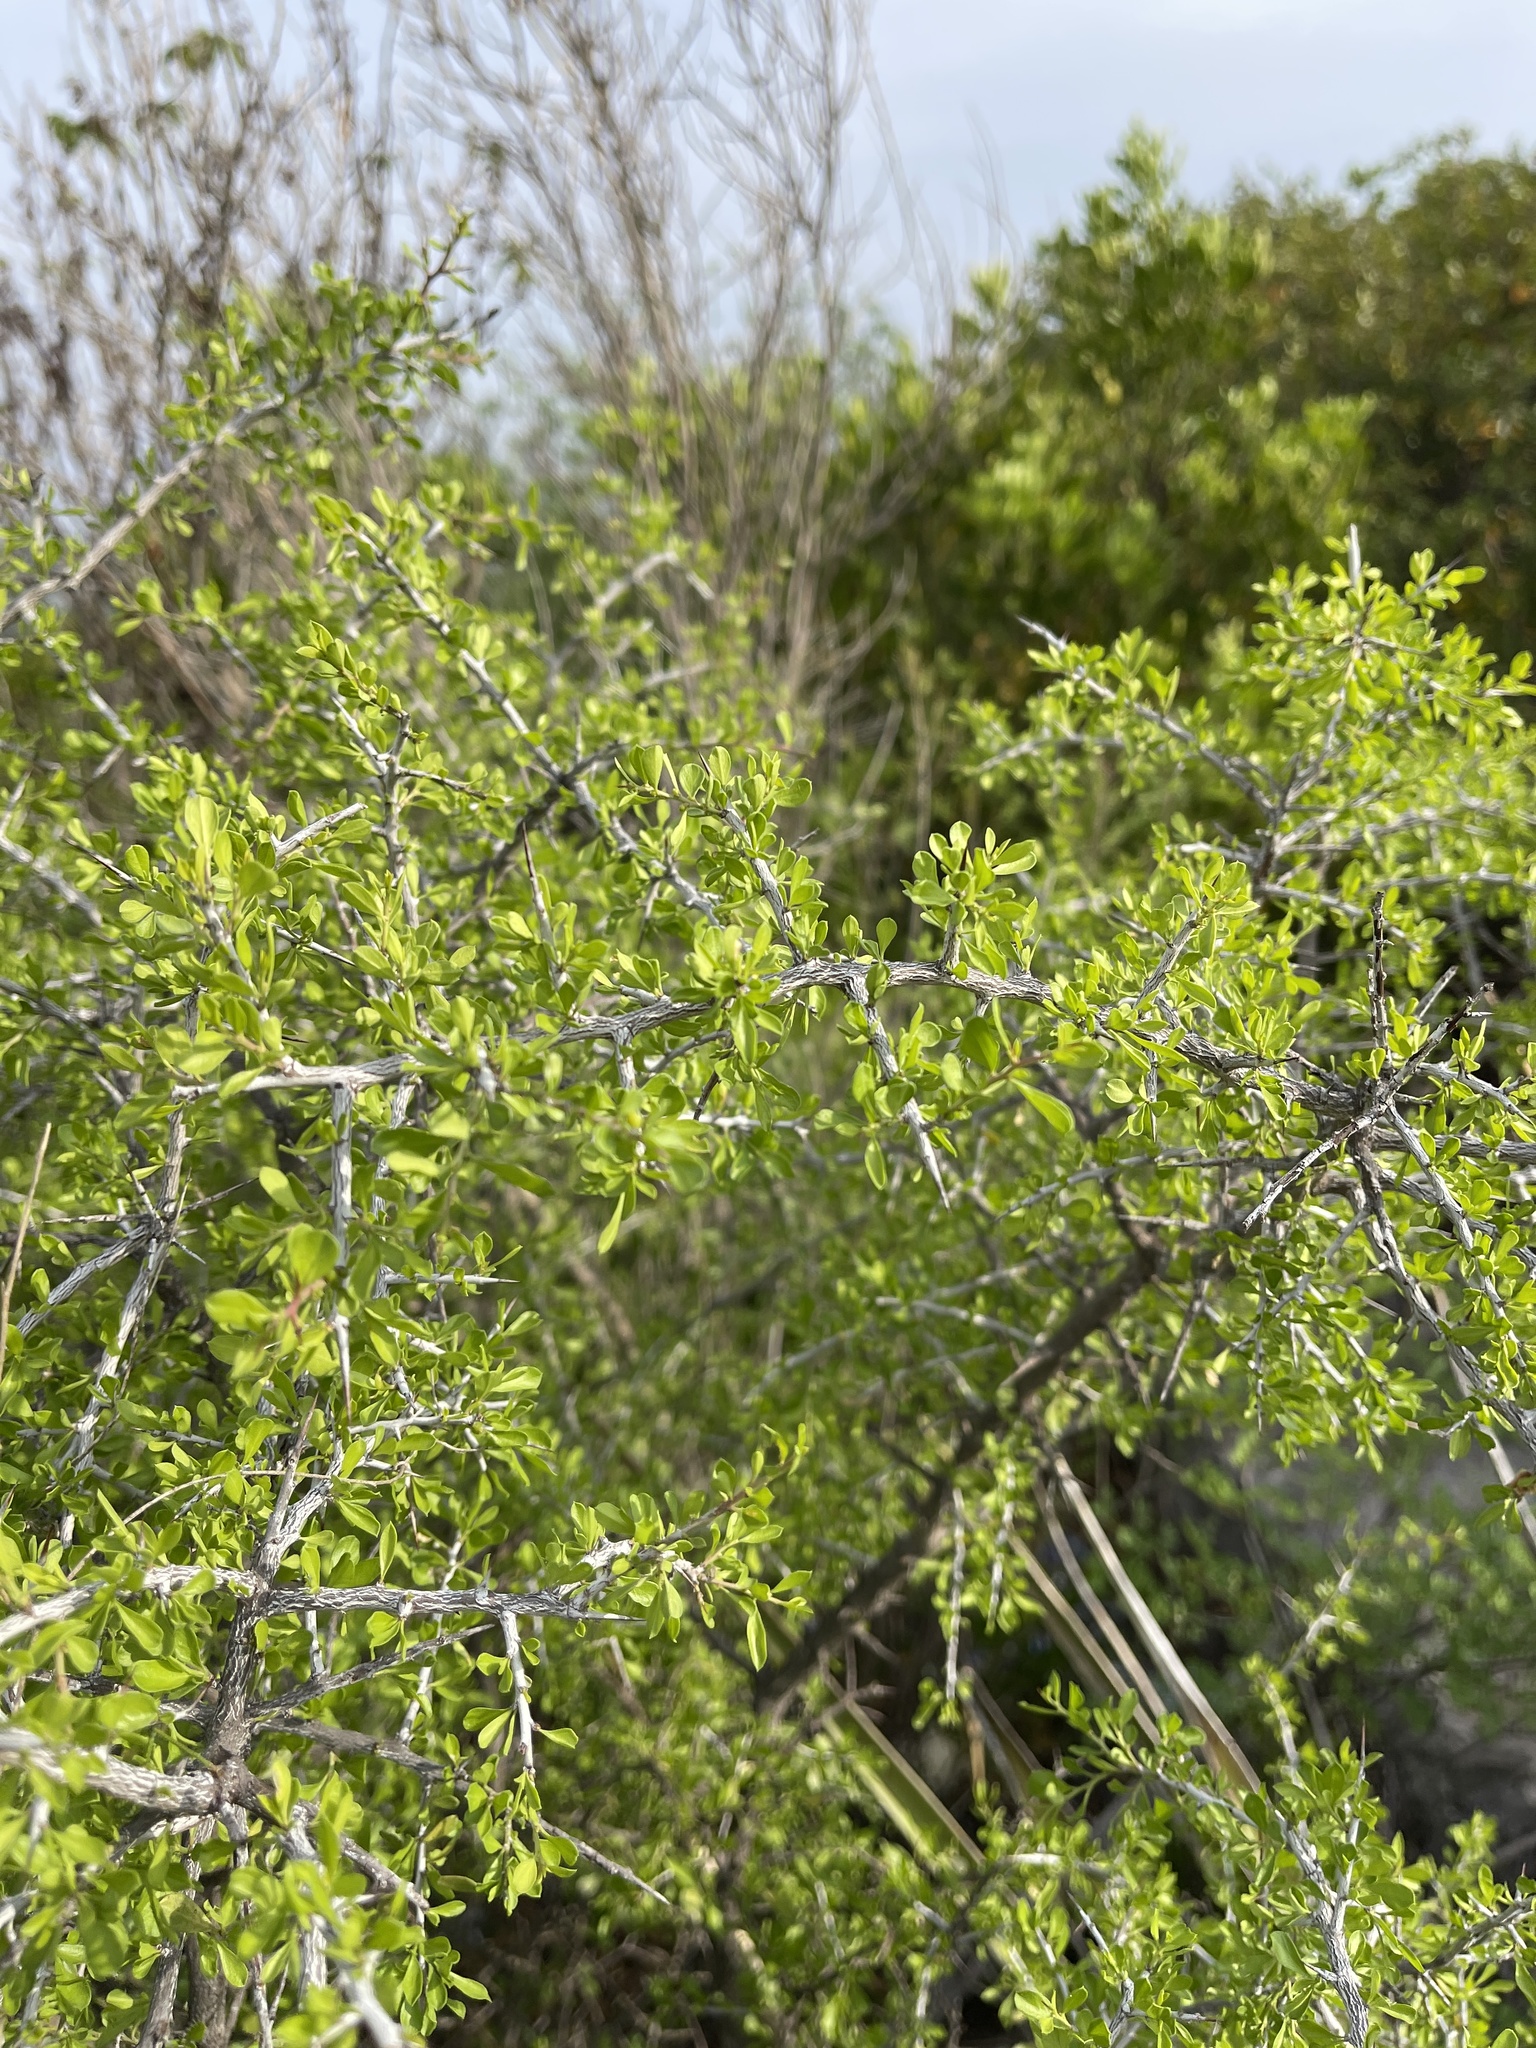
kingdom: Plantae
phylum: Tracheophyta
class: Magnoliopsida
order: Rosales
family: Rhamnaceae
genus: Condalia
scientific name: Condalia viridis
